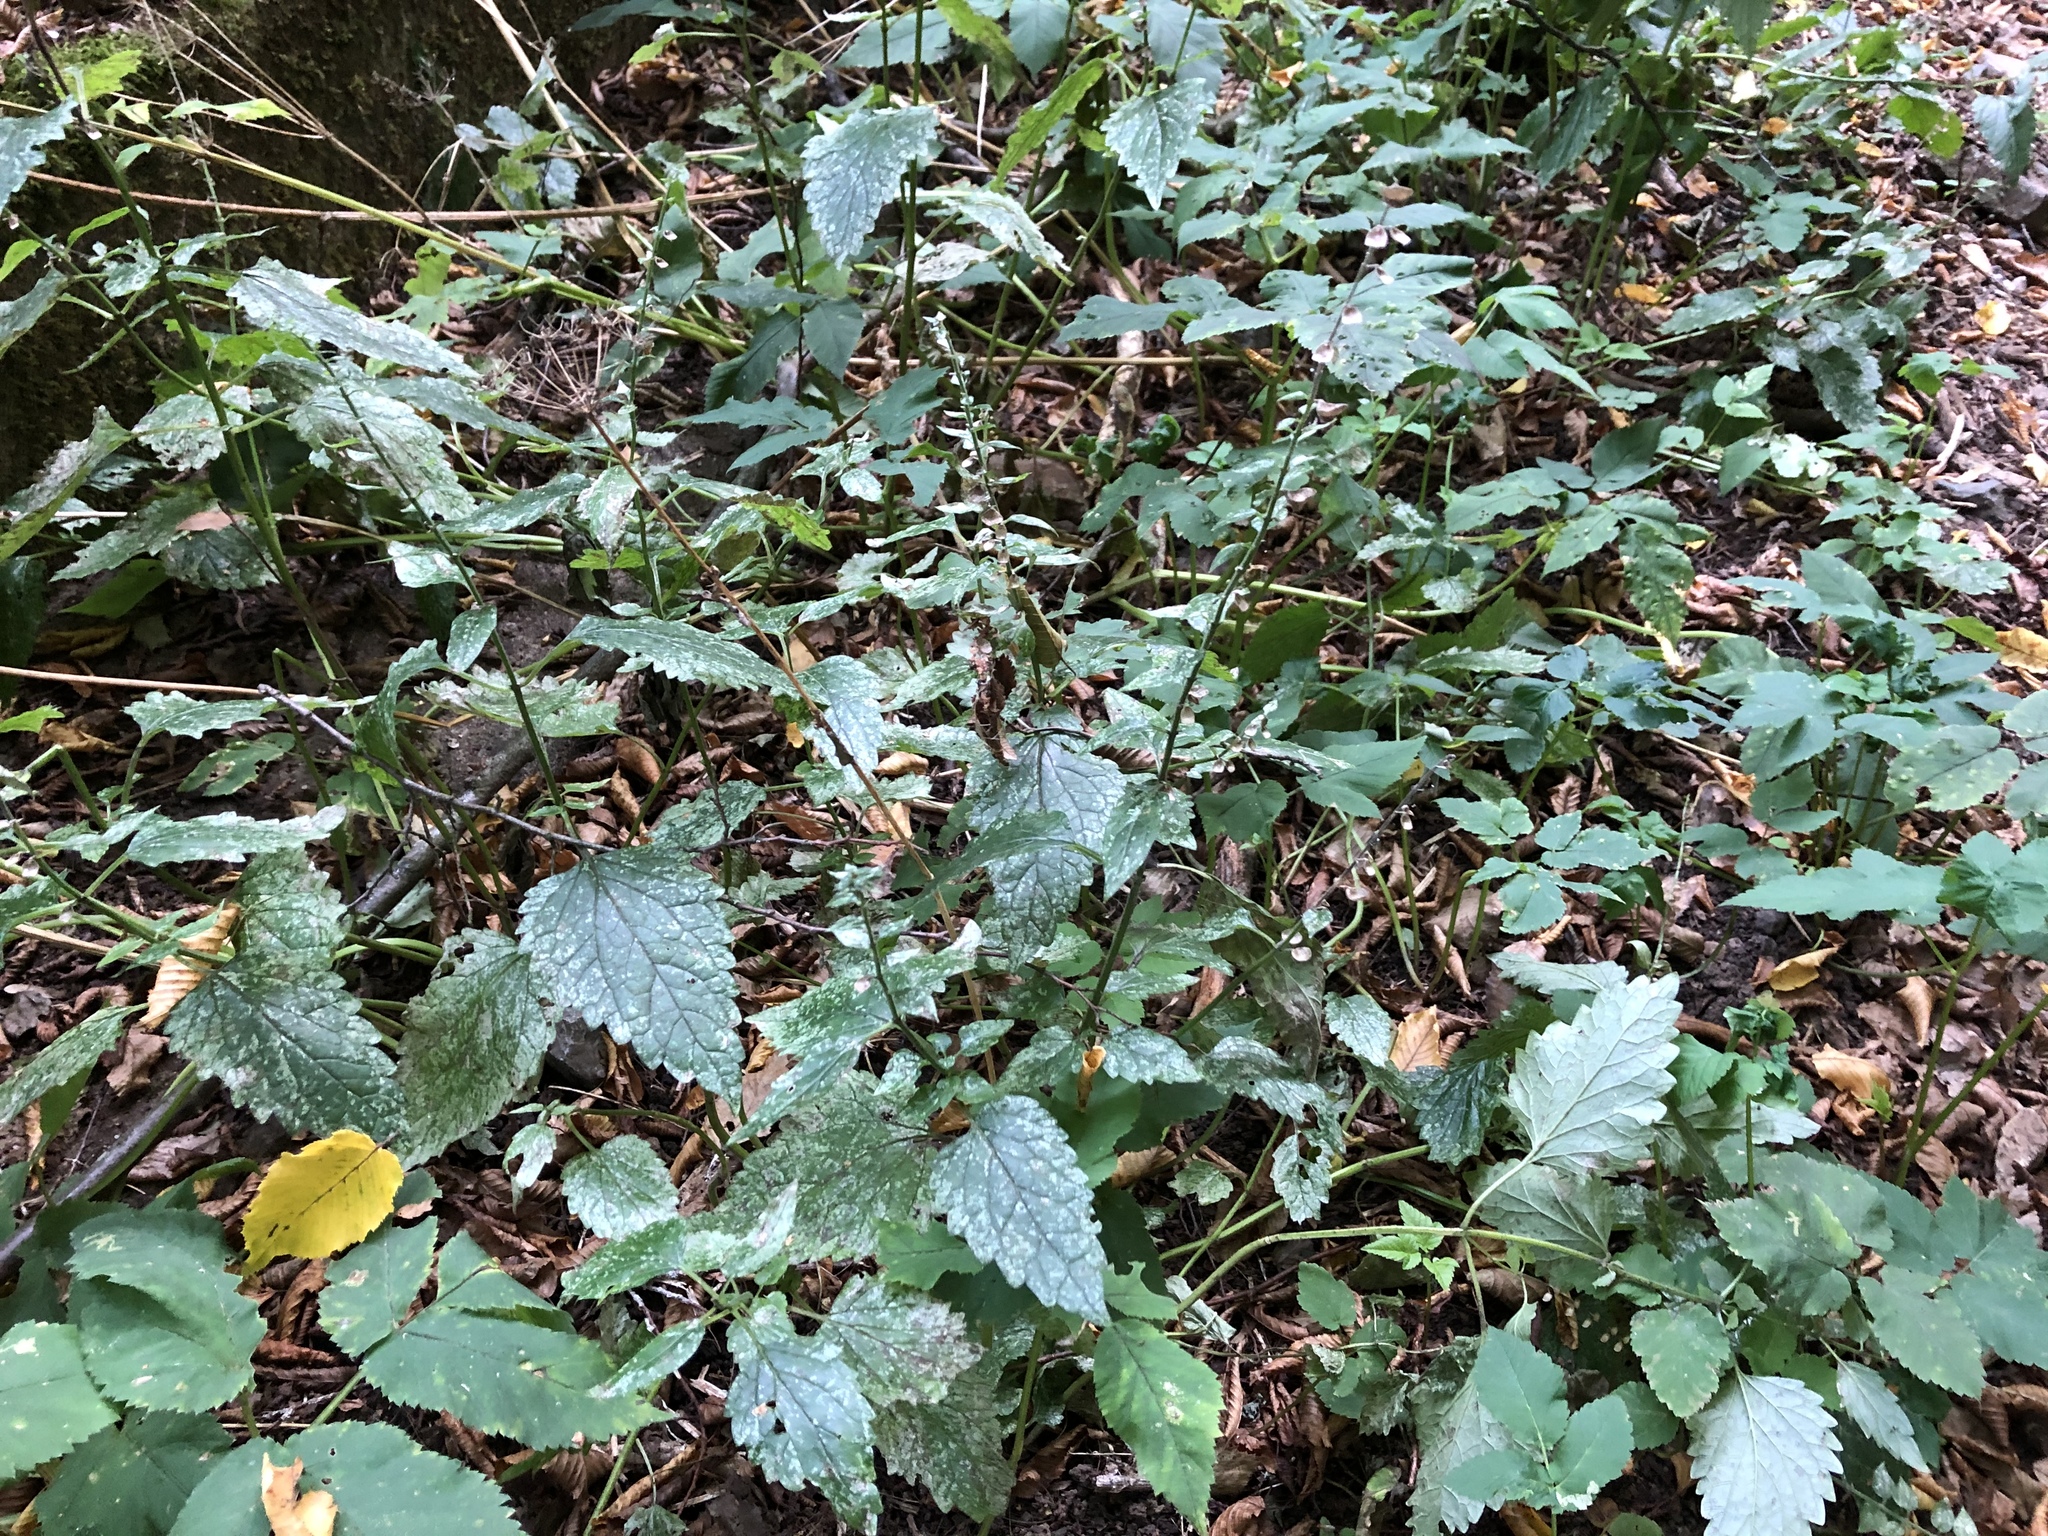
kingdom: Plantae
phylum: Tracheophyta
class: Magnoliopsida
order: Lamiales
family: Lamiaceae
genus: Scutellaria
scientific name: Scutellaria altissima
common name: Somerset skullcap
